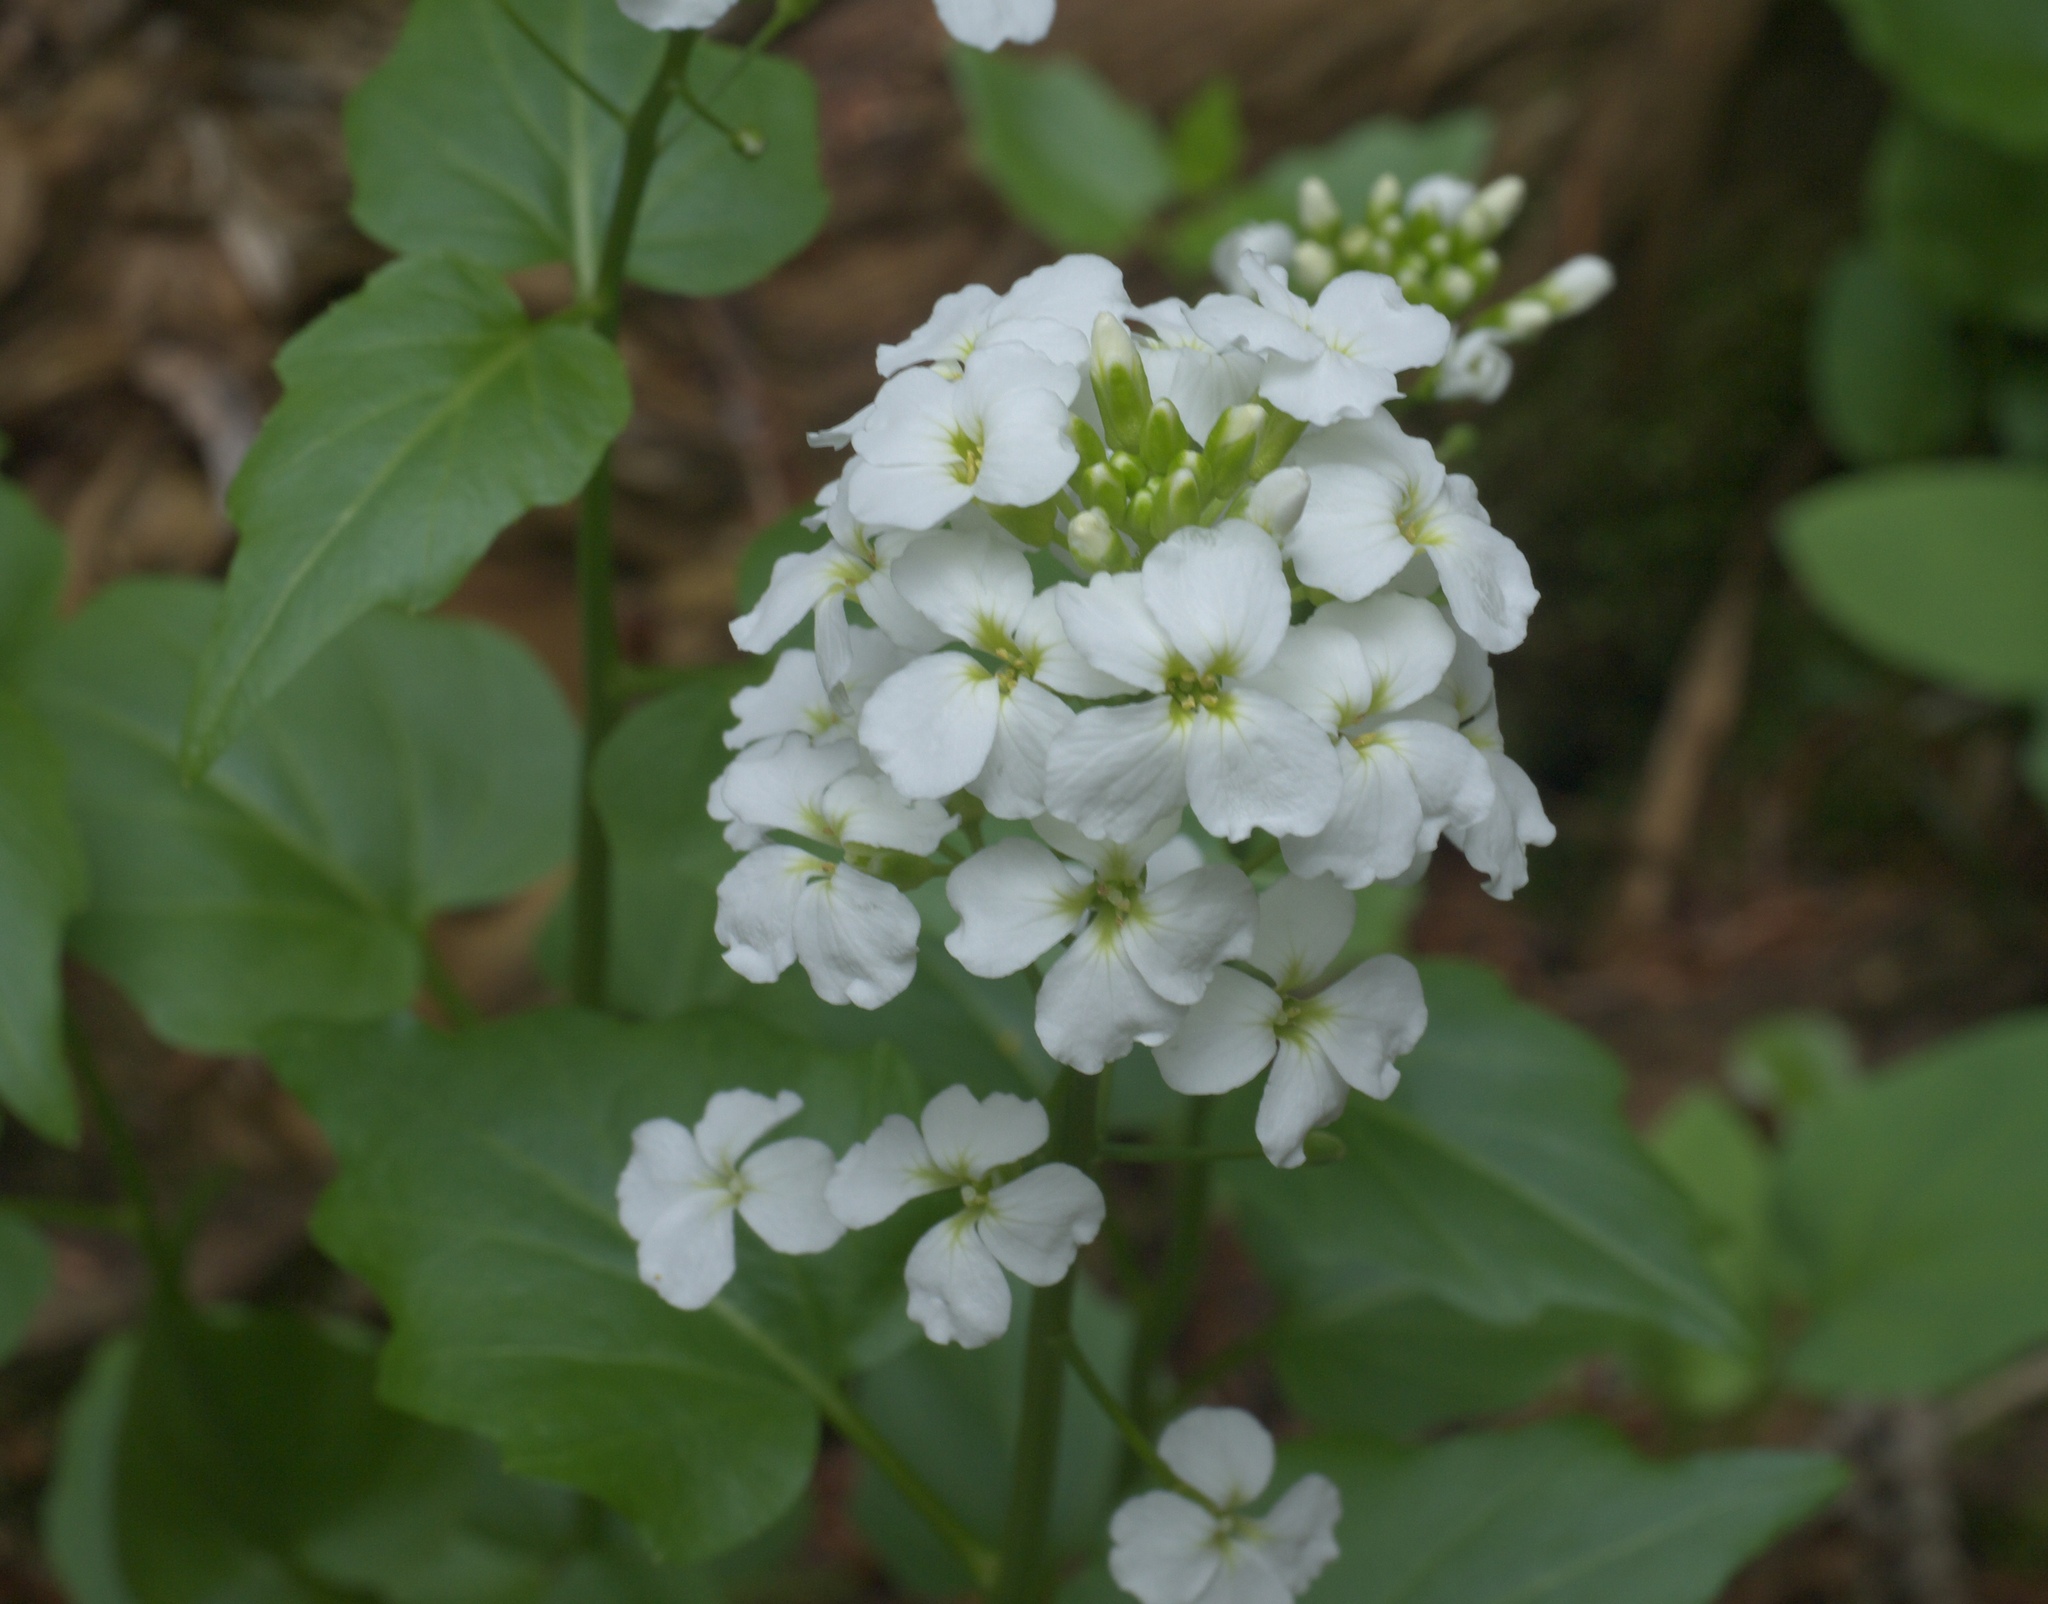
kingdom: Plantae
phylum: Tracheophyta
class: Magnoliopsida
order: Brassicales
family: Brassicaceae
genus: Cardamine
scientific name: Cardamine cordifolia
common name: Heart-leaf bittercress
